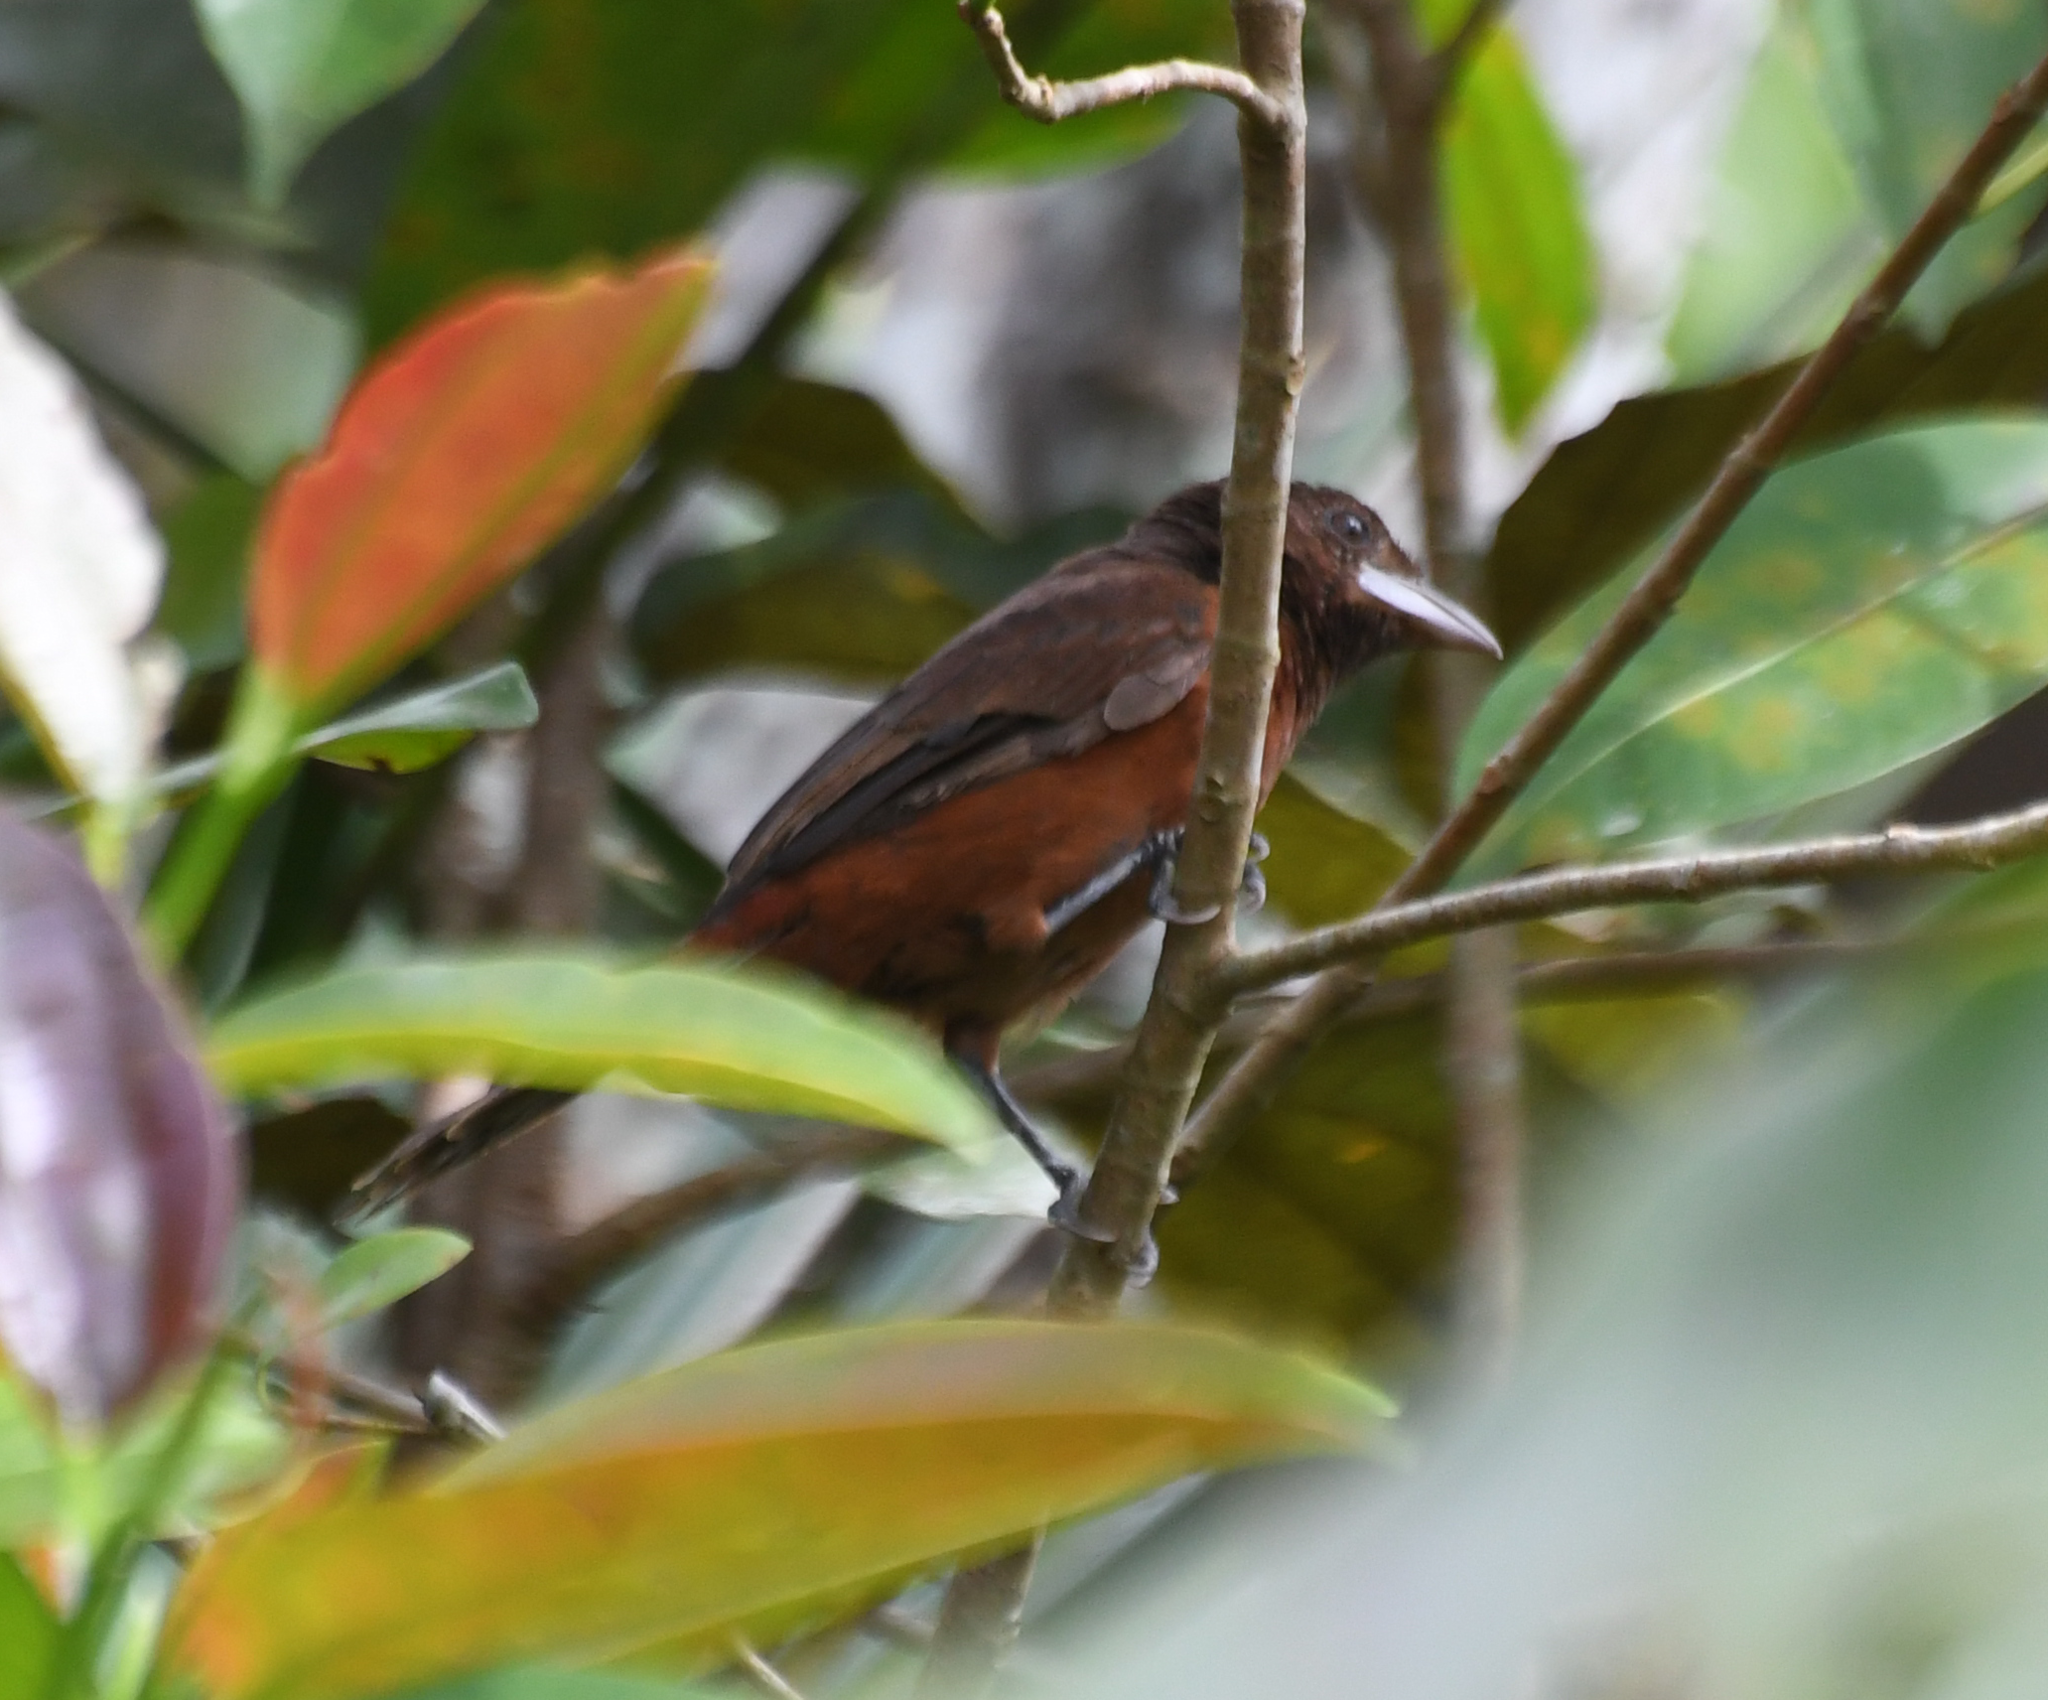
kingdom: Animalia
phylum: Chordata
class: Aves
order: Passeriformes
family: Thraupidae
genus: Ramphocelus
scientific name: Ramphocelus carbo
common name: Silver-beaked tanager
